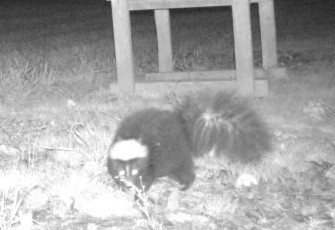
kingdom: Animalia
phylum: Chordata
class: Mammalia
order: Carnivora
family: Mephitidae
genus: Mephitis
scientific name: Mephitis mephitis
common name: Striped skunk
